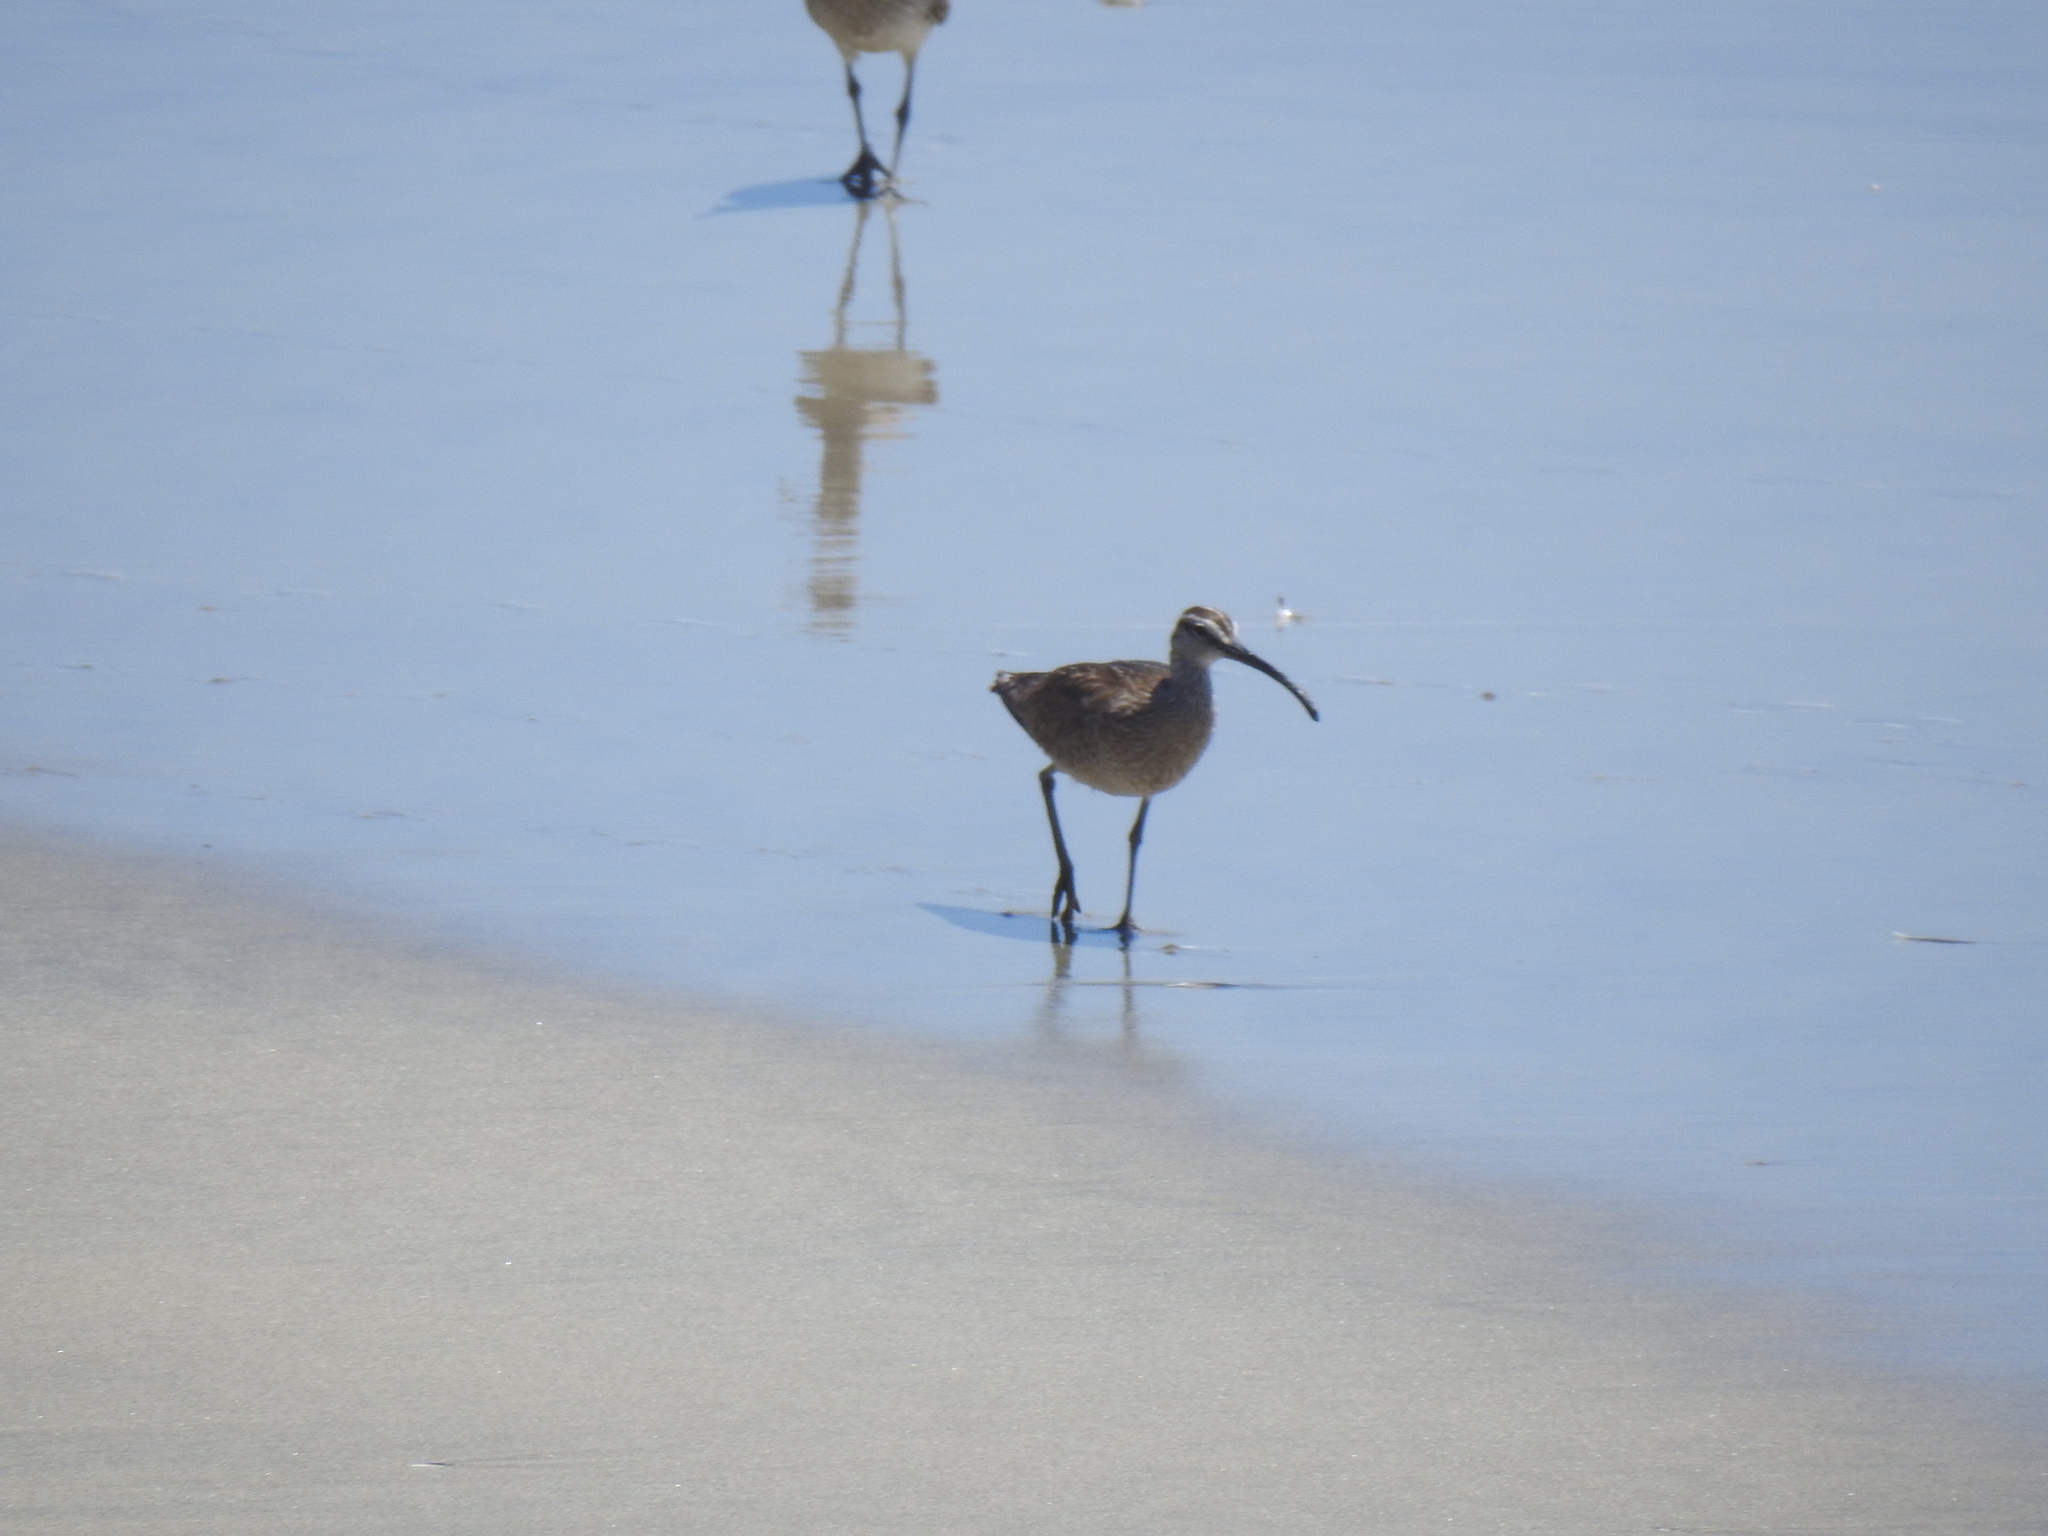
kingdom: Animalia
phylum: Chordata
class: Aves
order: Charadriiformes
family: Scolopacidae
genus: Numenius
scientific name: Numenius phaeopus
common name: Whimbrel
